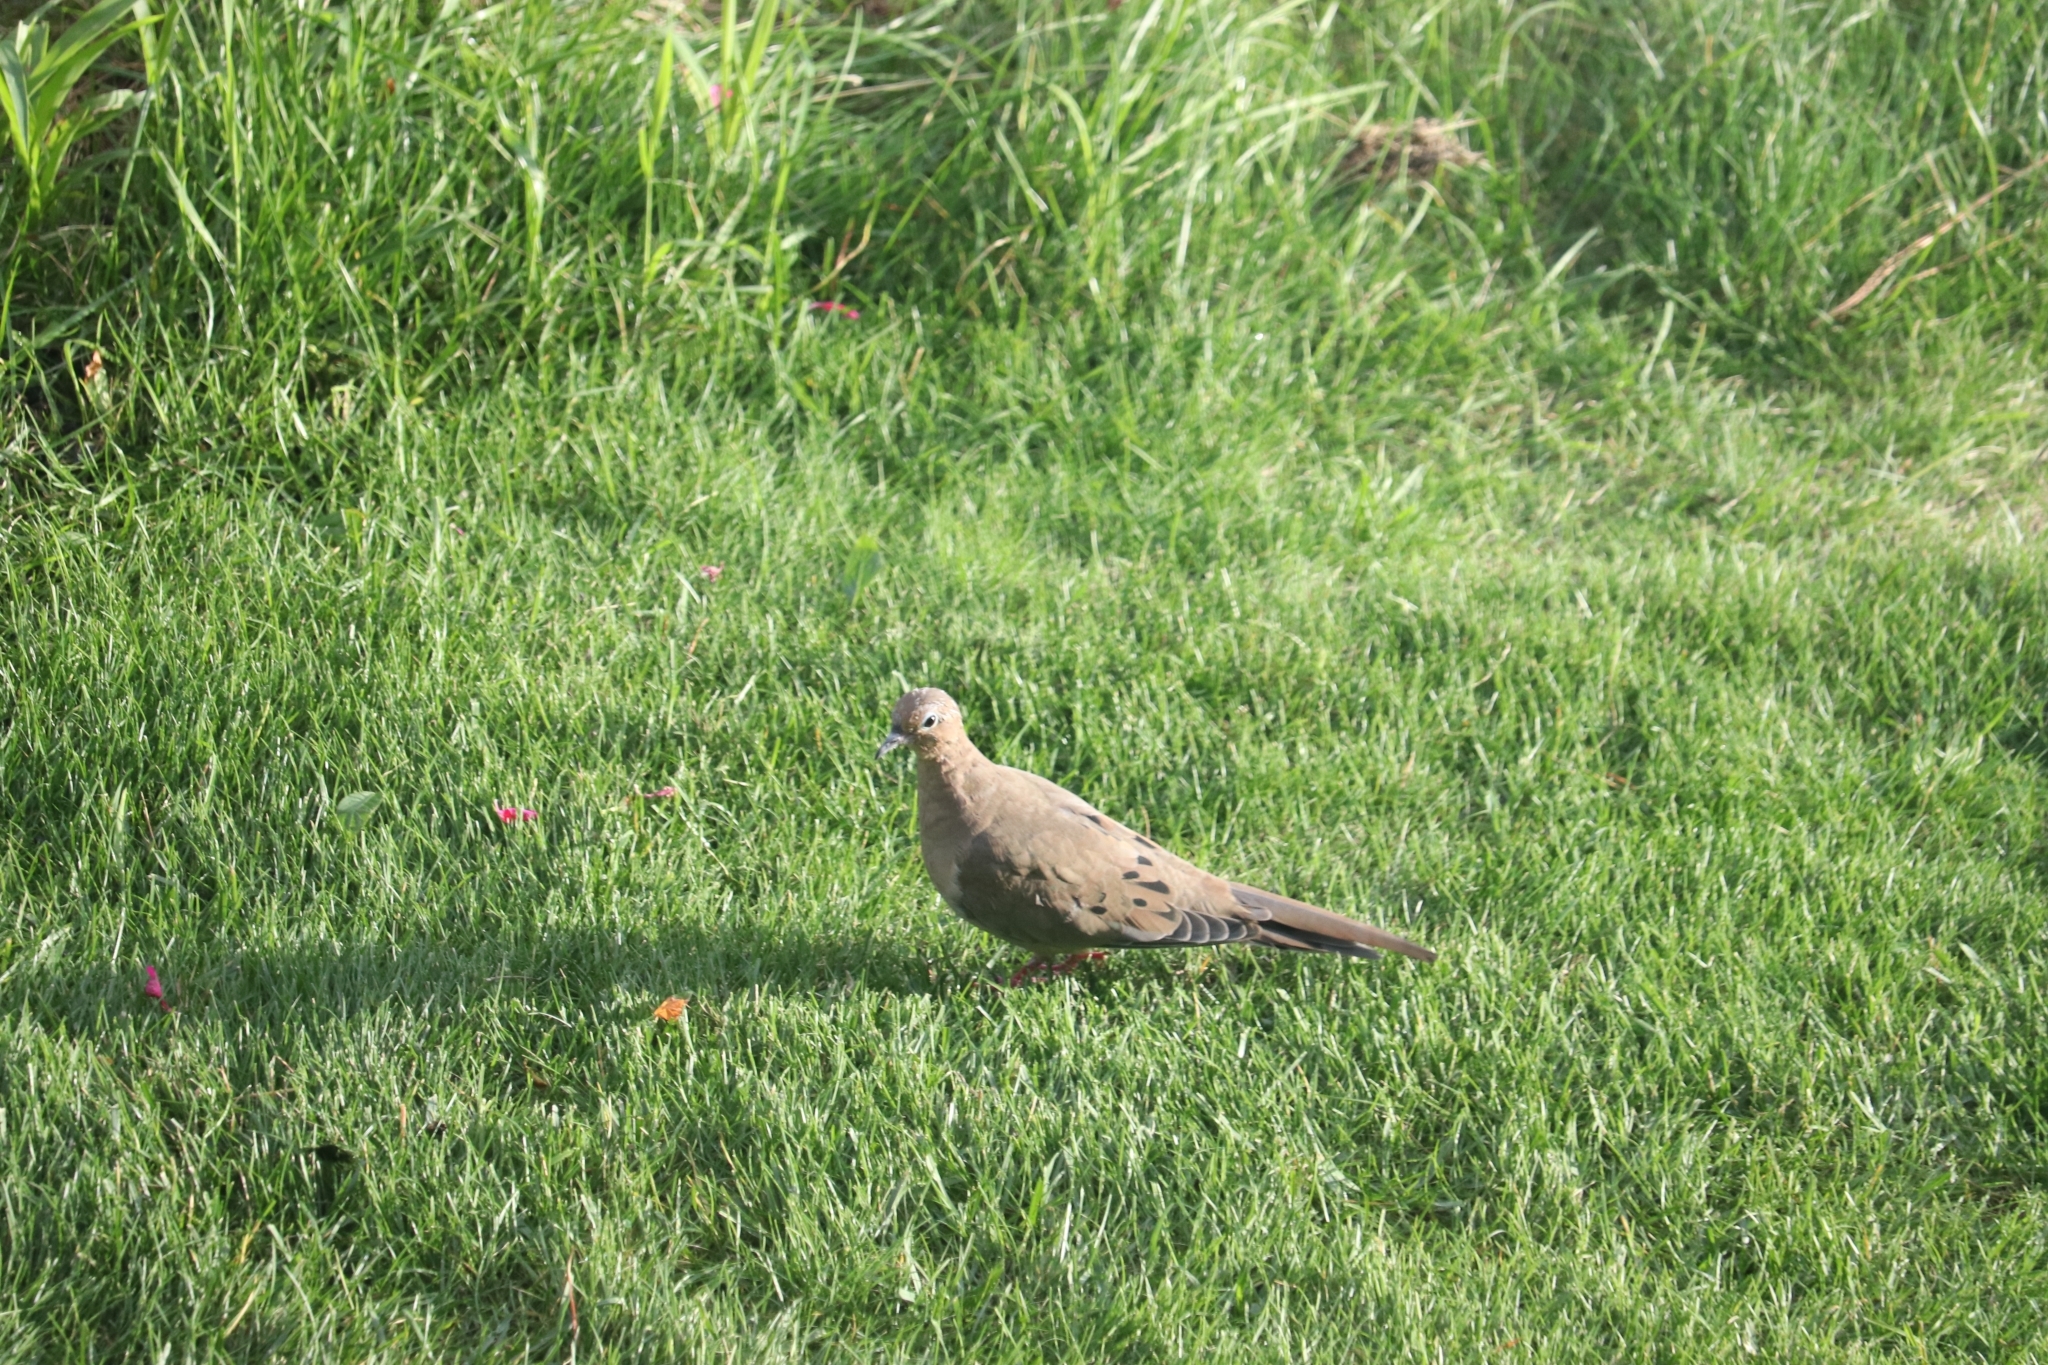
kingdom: Animalia
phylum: Chordata
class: Aves
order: Columbiformes
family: Columbidae
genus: Zenaida
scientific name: Zenaida macroura
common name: Mourning dove
